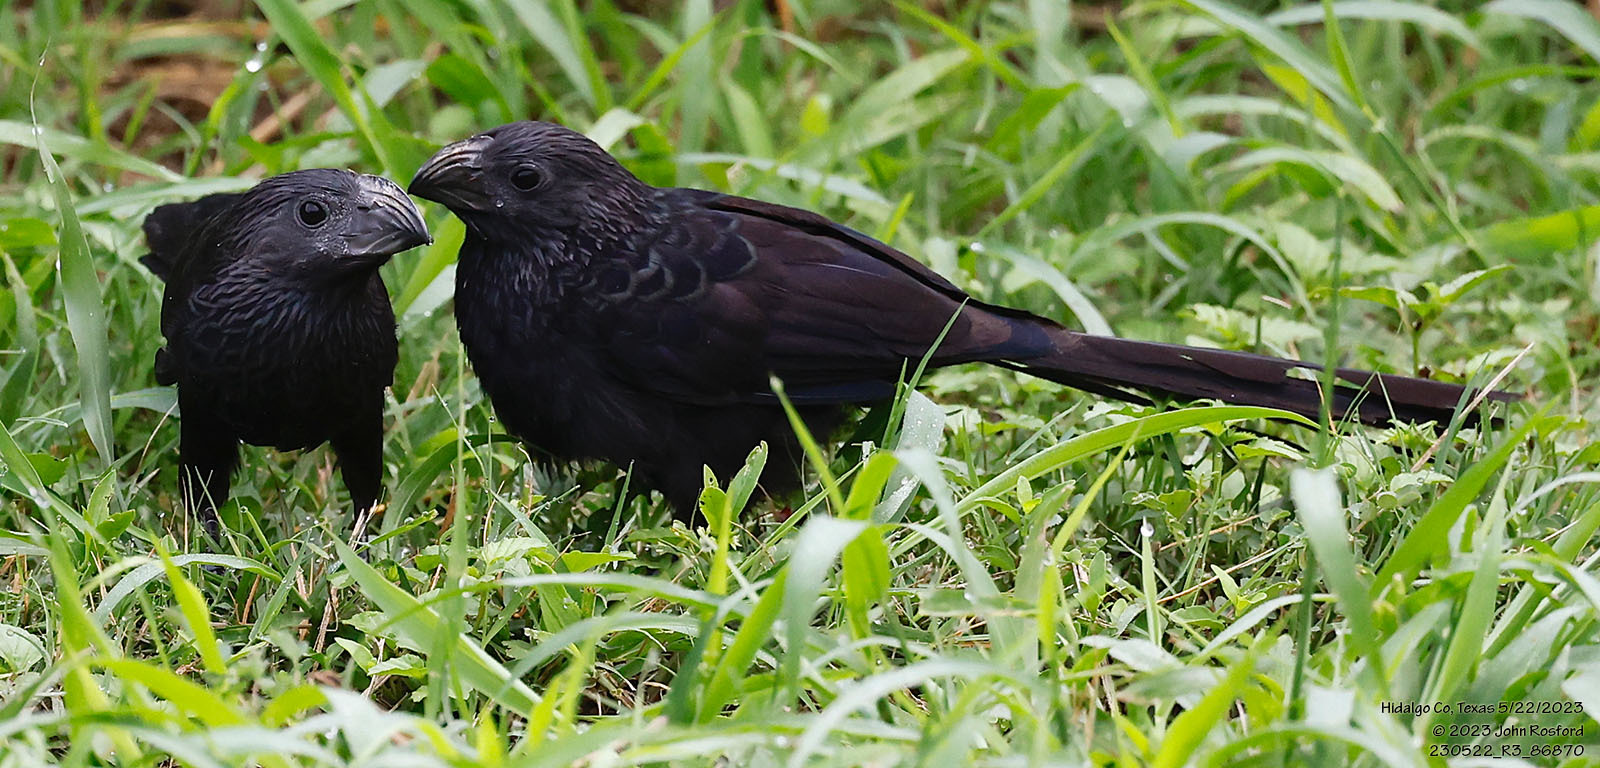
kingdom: Animalia
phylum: Chordata
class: Aves
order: Cuculiformes
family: Cuculidae
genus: Crotophaga
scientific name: Crotophaga sulcirostris
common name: Groove-billed ani
